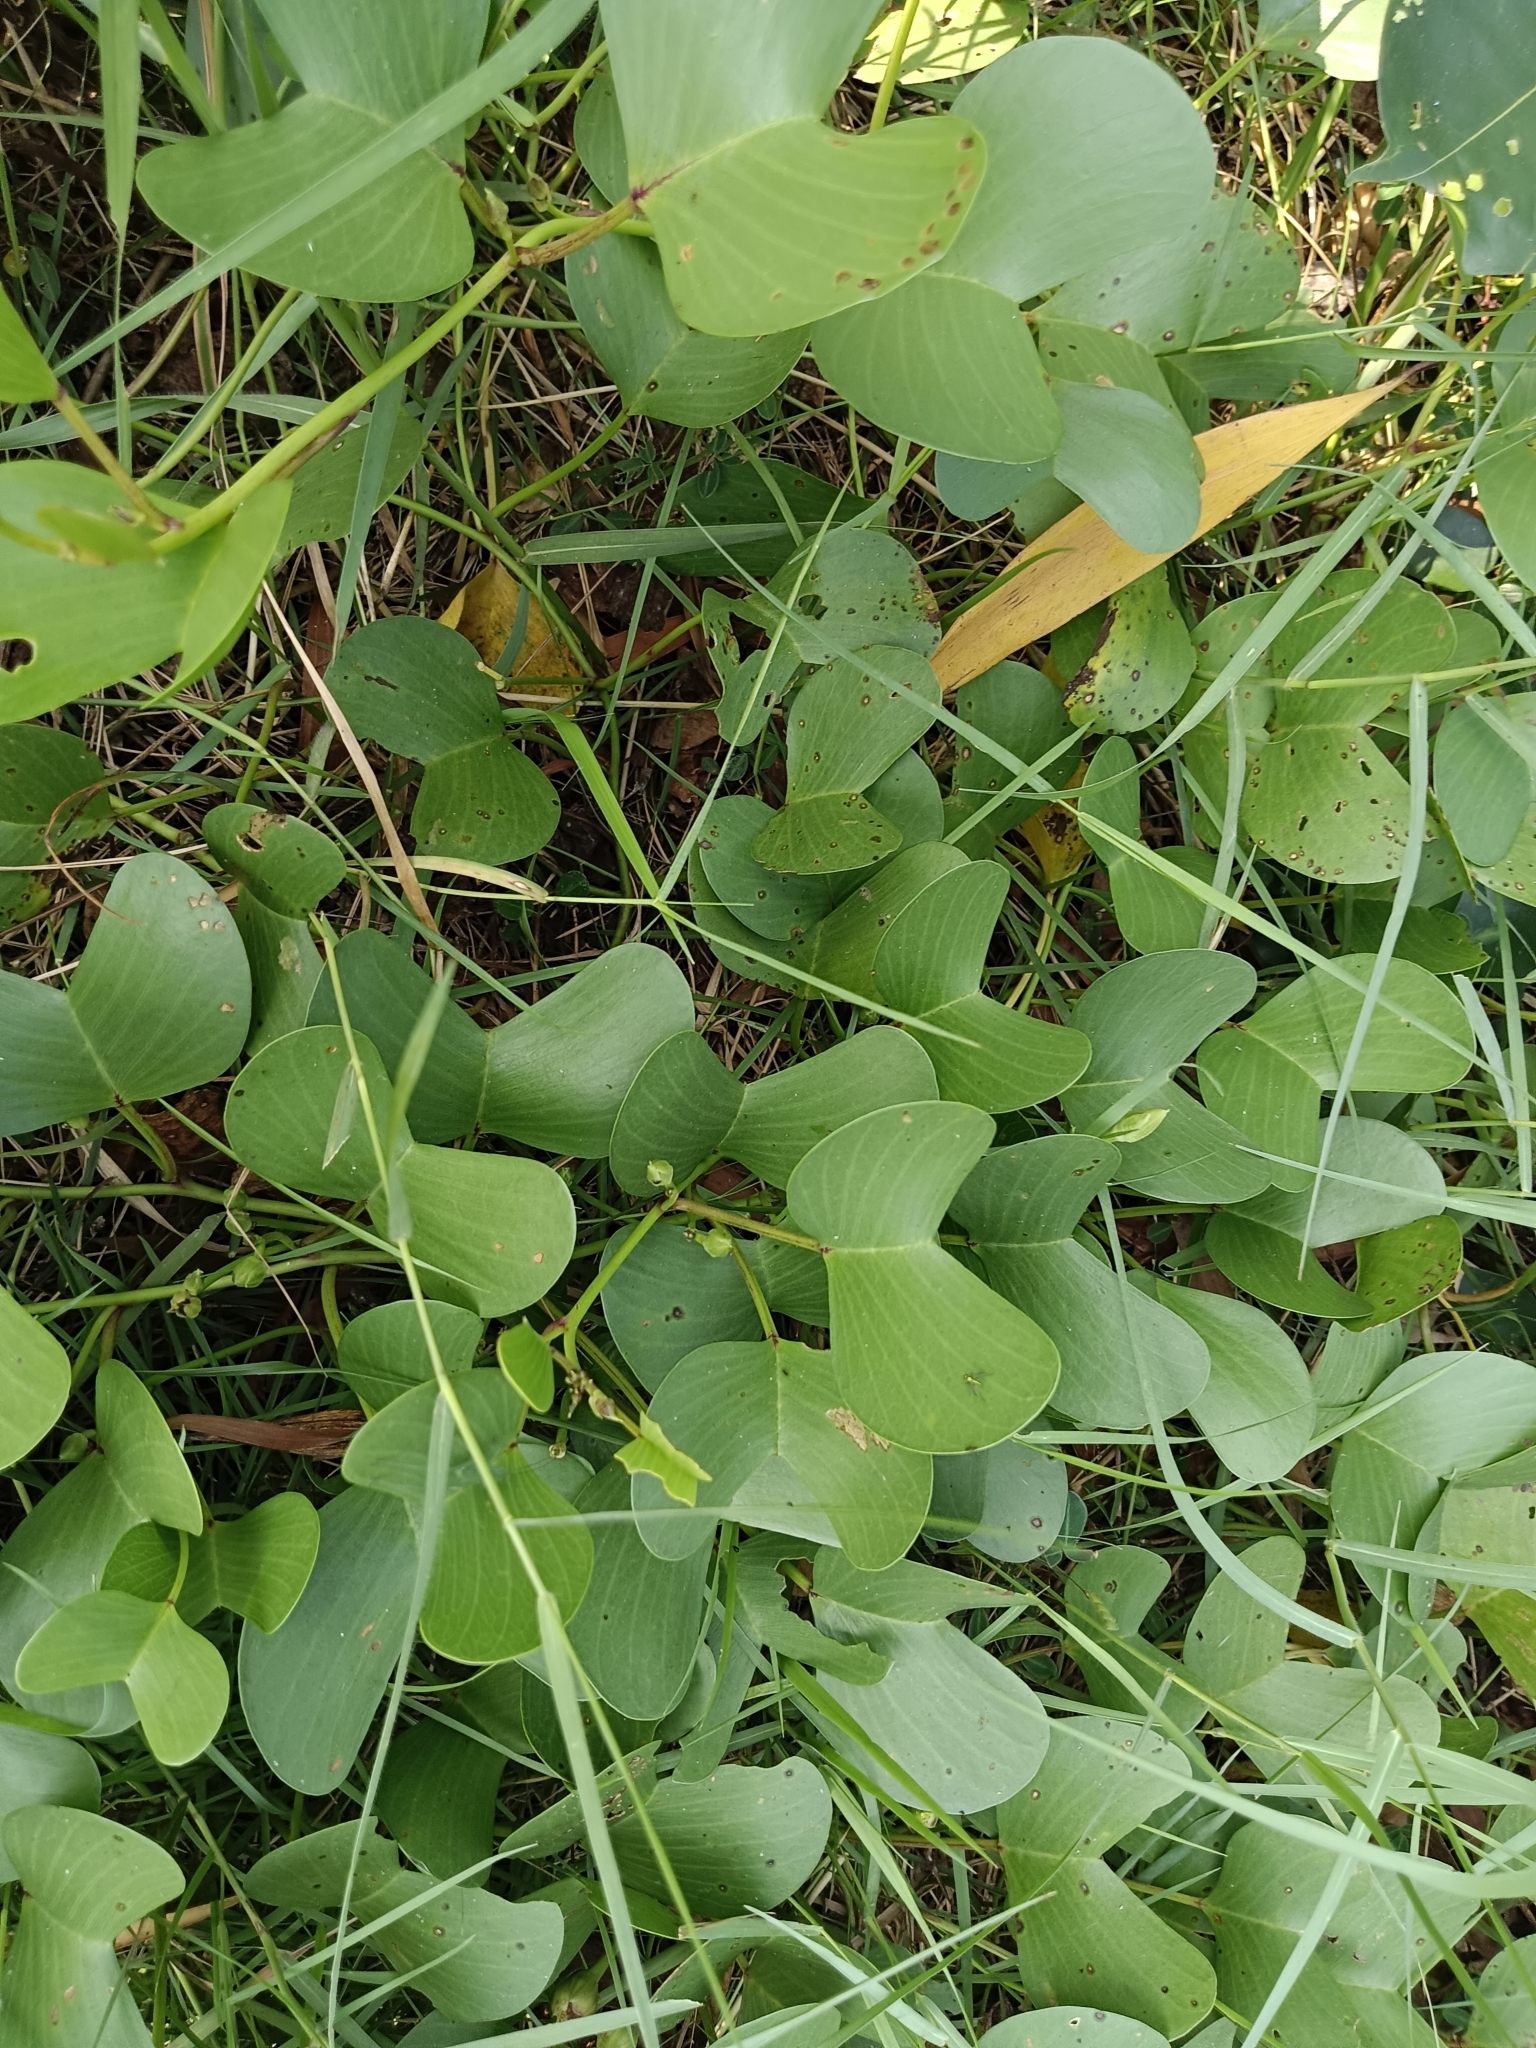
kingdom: Plantae
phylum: Tracheophyta
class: Magnoliopsida
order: Solanales
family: Convolvulaceae
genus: Ipomoea
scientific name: Ipomoea pes-caprae
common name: Beach morning glory
